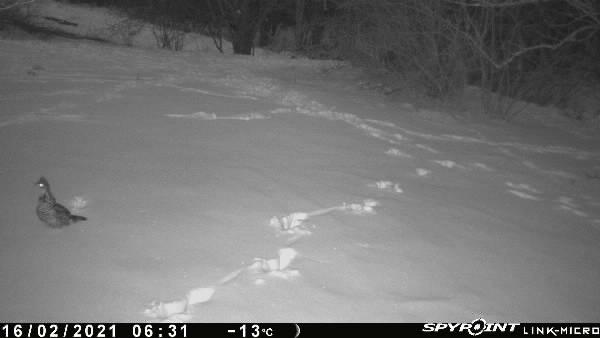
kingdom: Animalia
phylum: Chordata
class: Aves
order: Galliformes
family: Phasianidae
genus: Bonasa
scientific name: Bonasa umbellus
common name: Ruffed grouse
